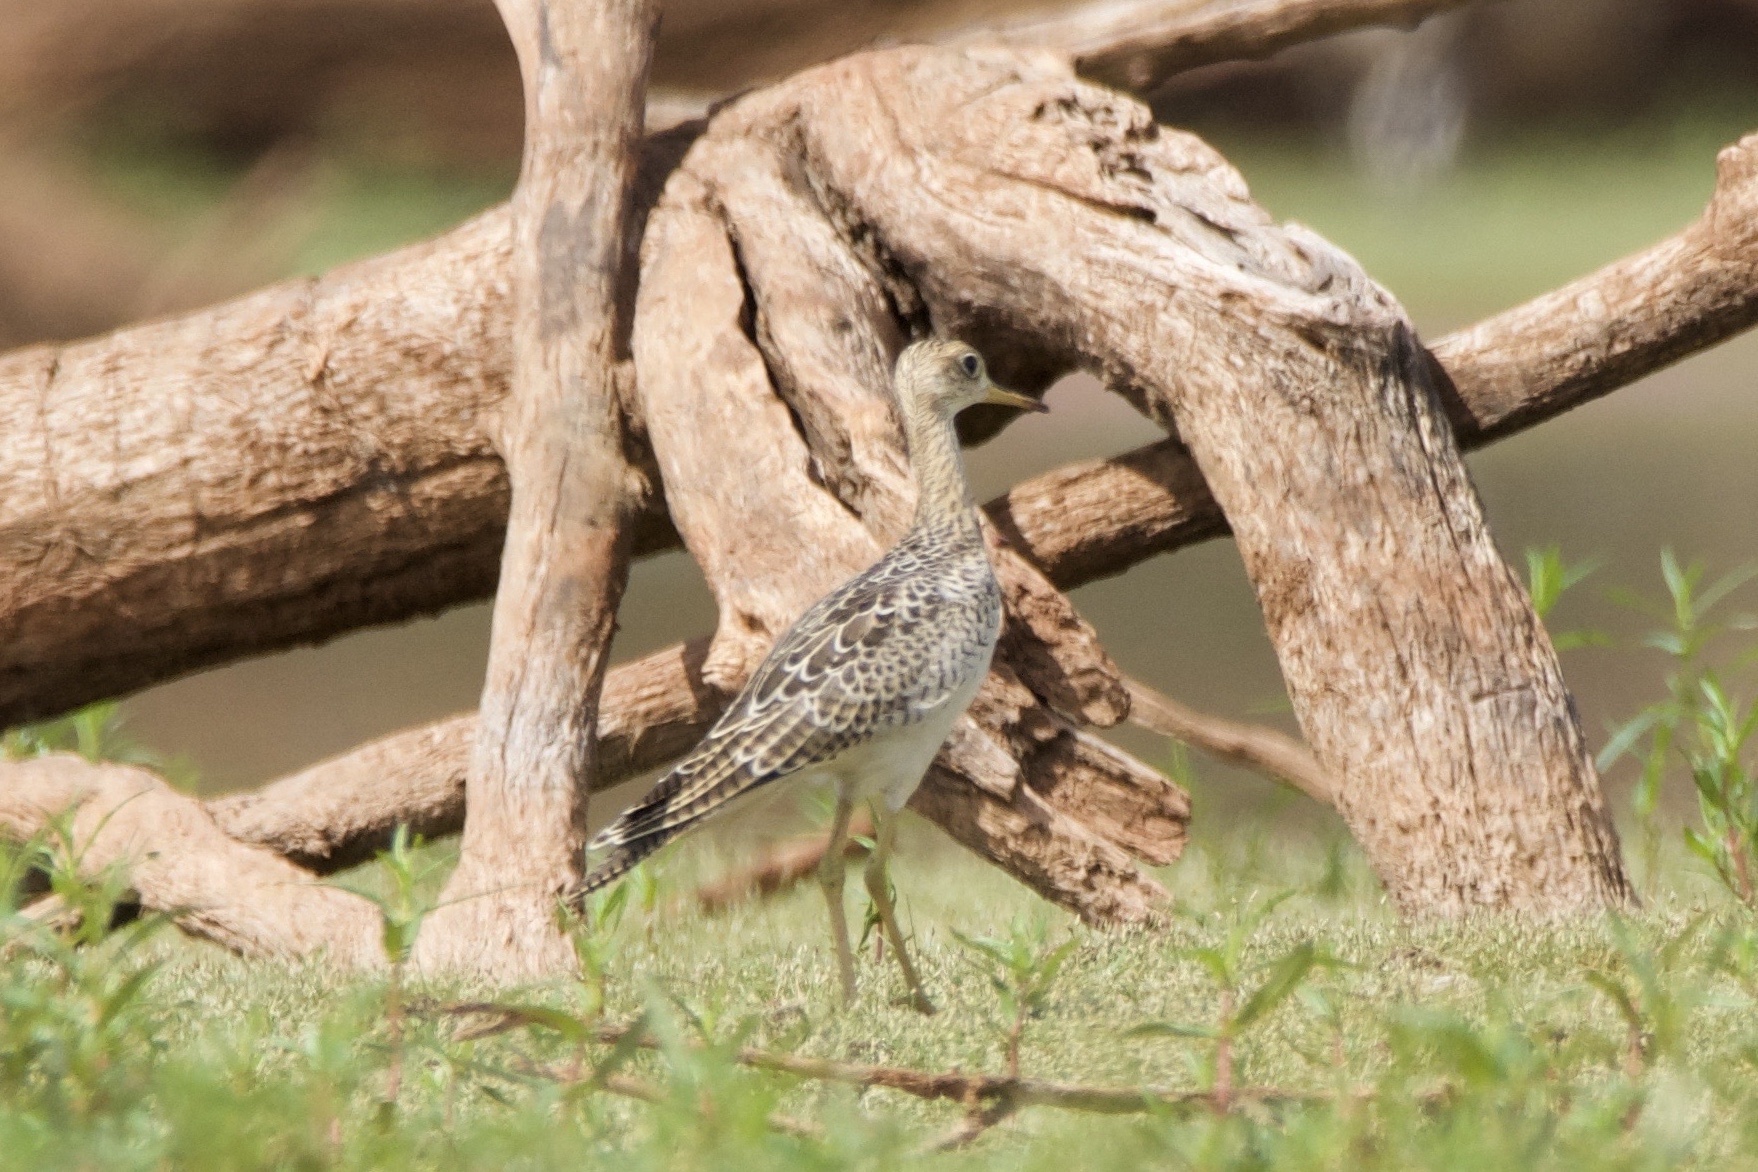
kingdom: Animalia
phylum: Chordata
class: Aves
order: Charadriiformes
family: Scolopacidae
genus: Bartramia
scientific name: Bartramia longicauda
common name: Upland sandpiper
